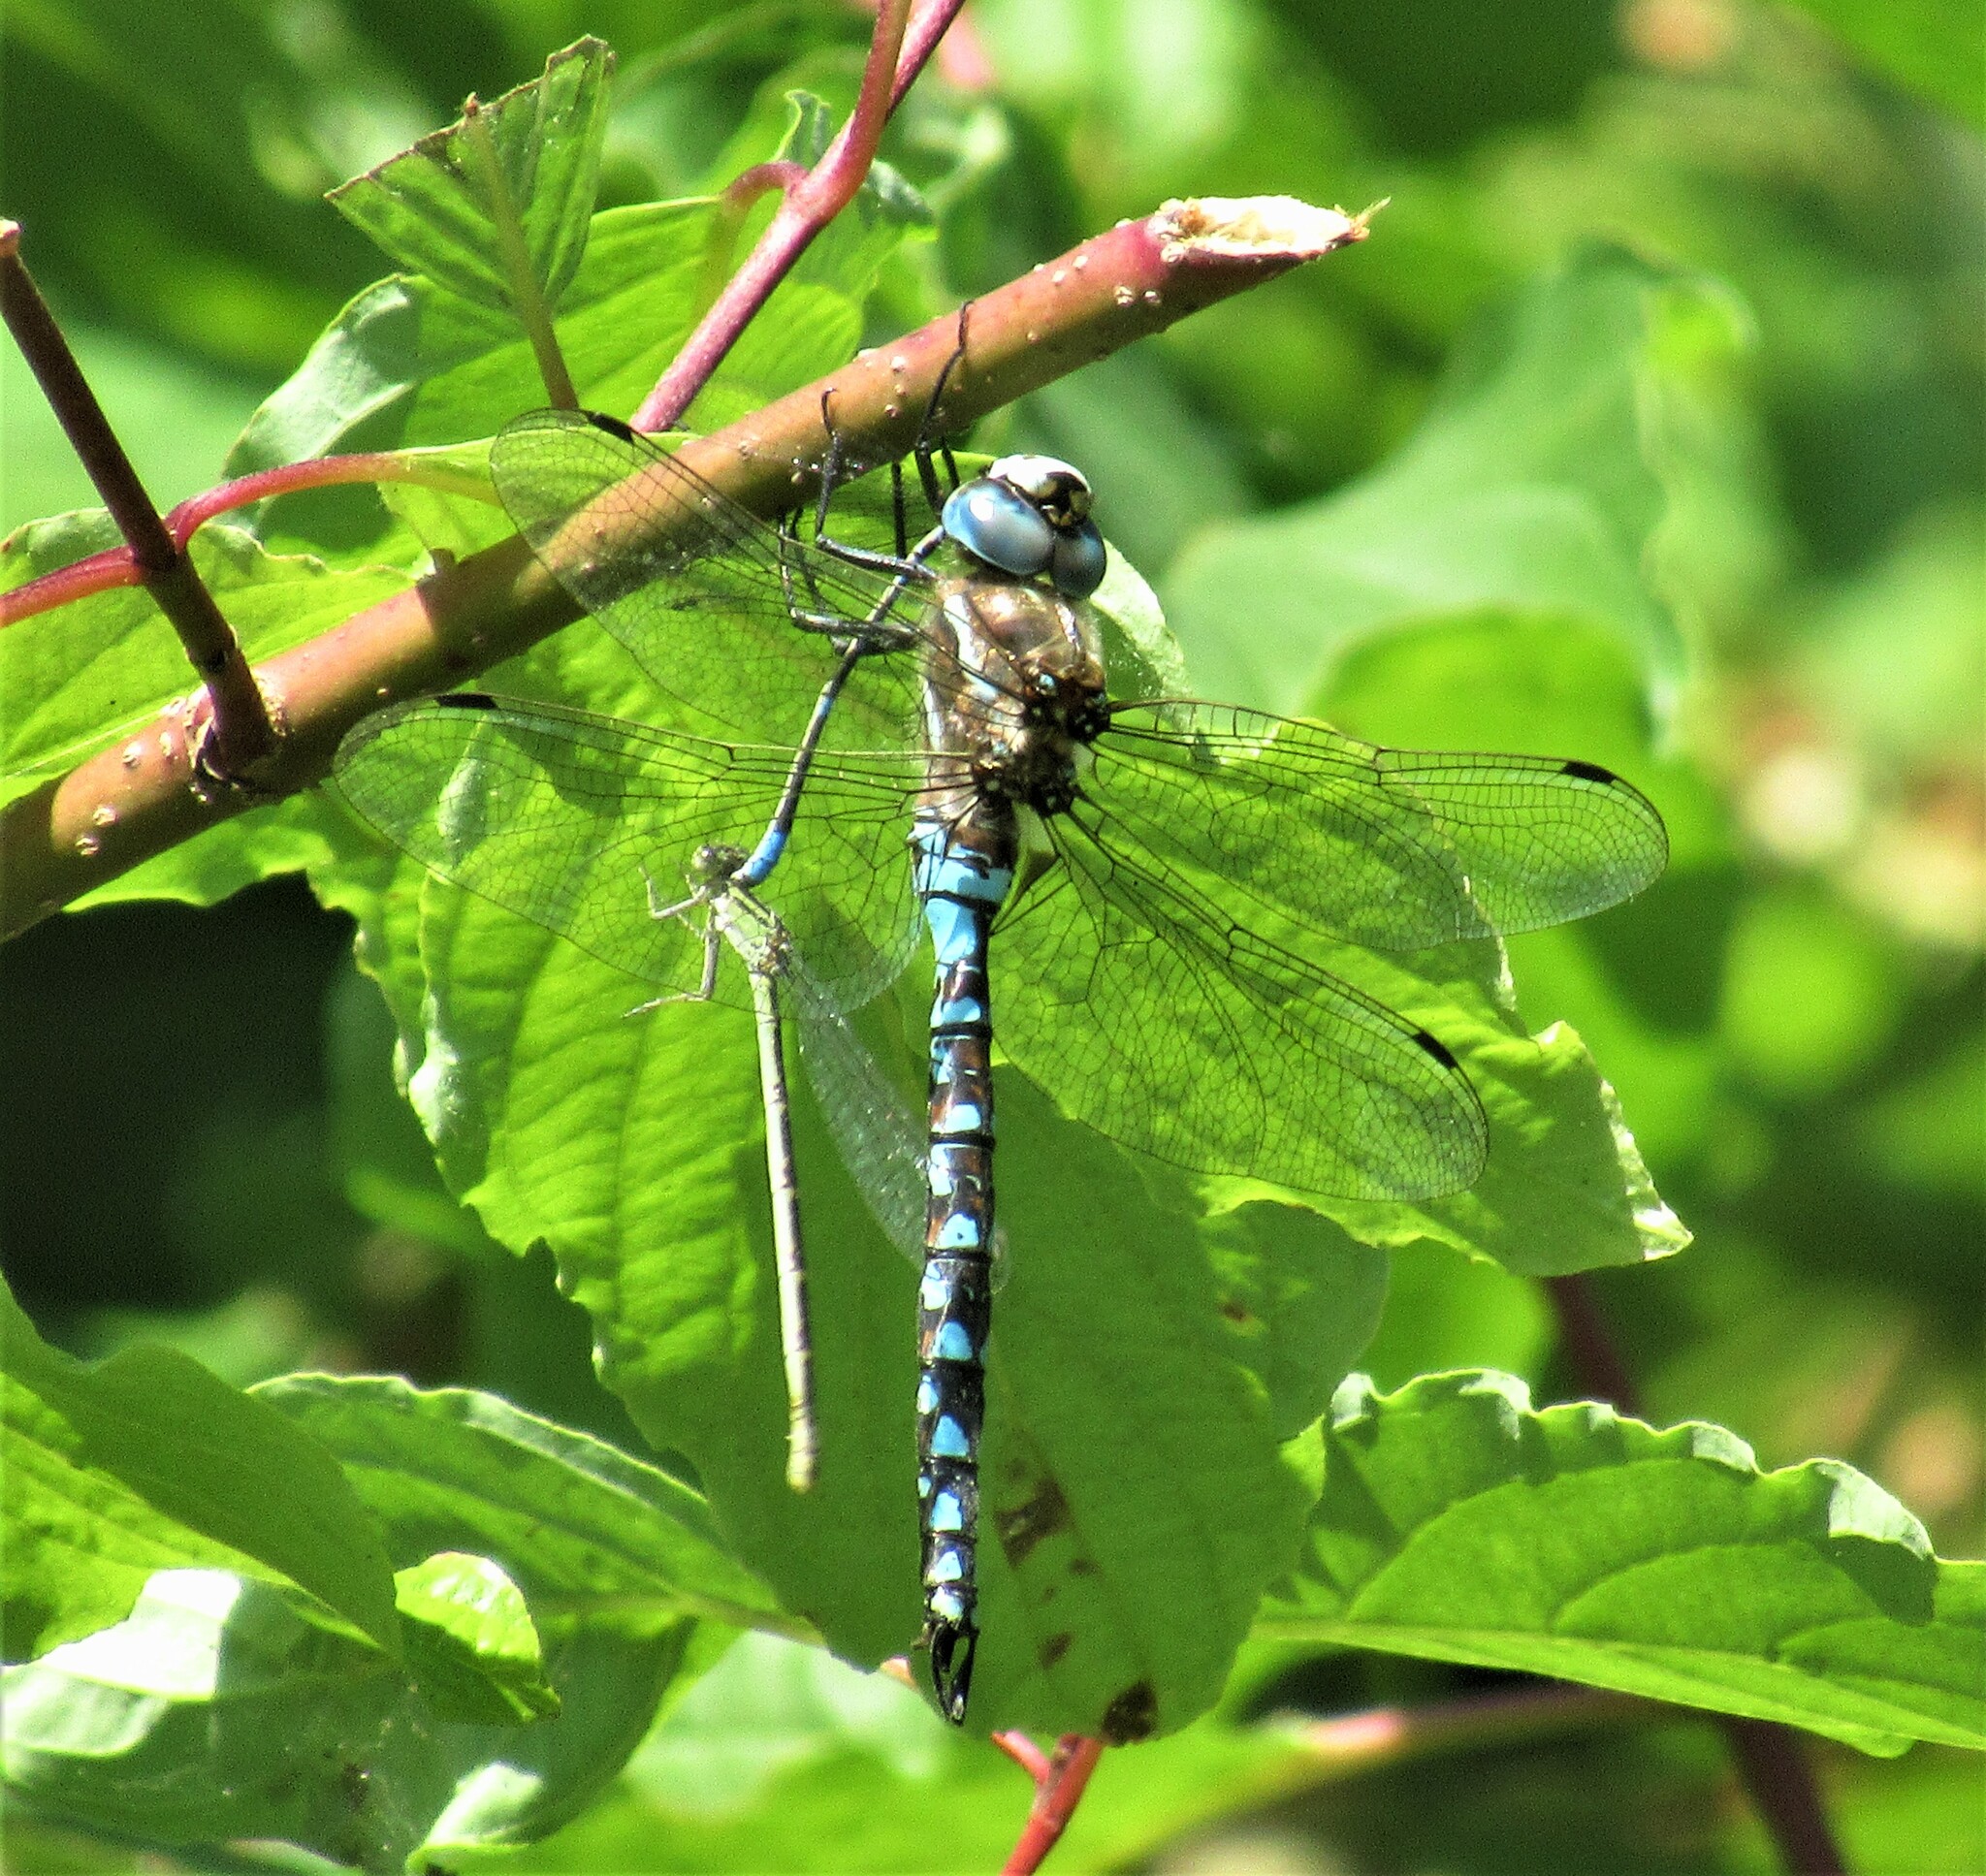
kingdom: Animalia
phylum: Arthropoda
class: Insecta
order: Odonata
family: Aeshnidae
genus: Rhionaeschna
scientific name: Rhionaeschna californica
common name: California darner
